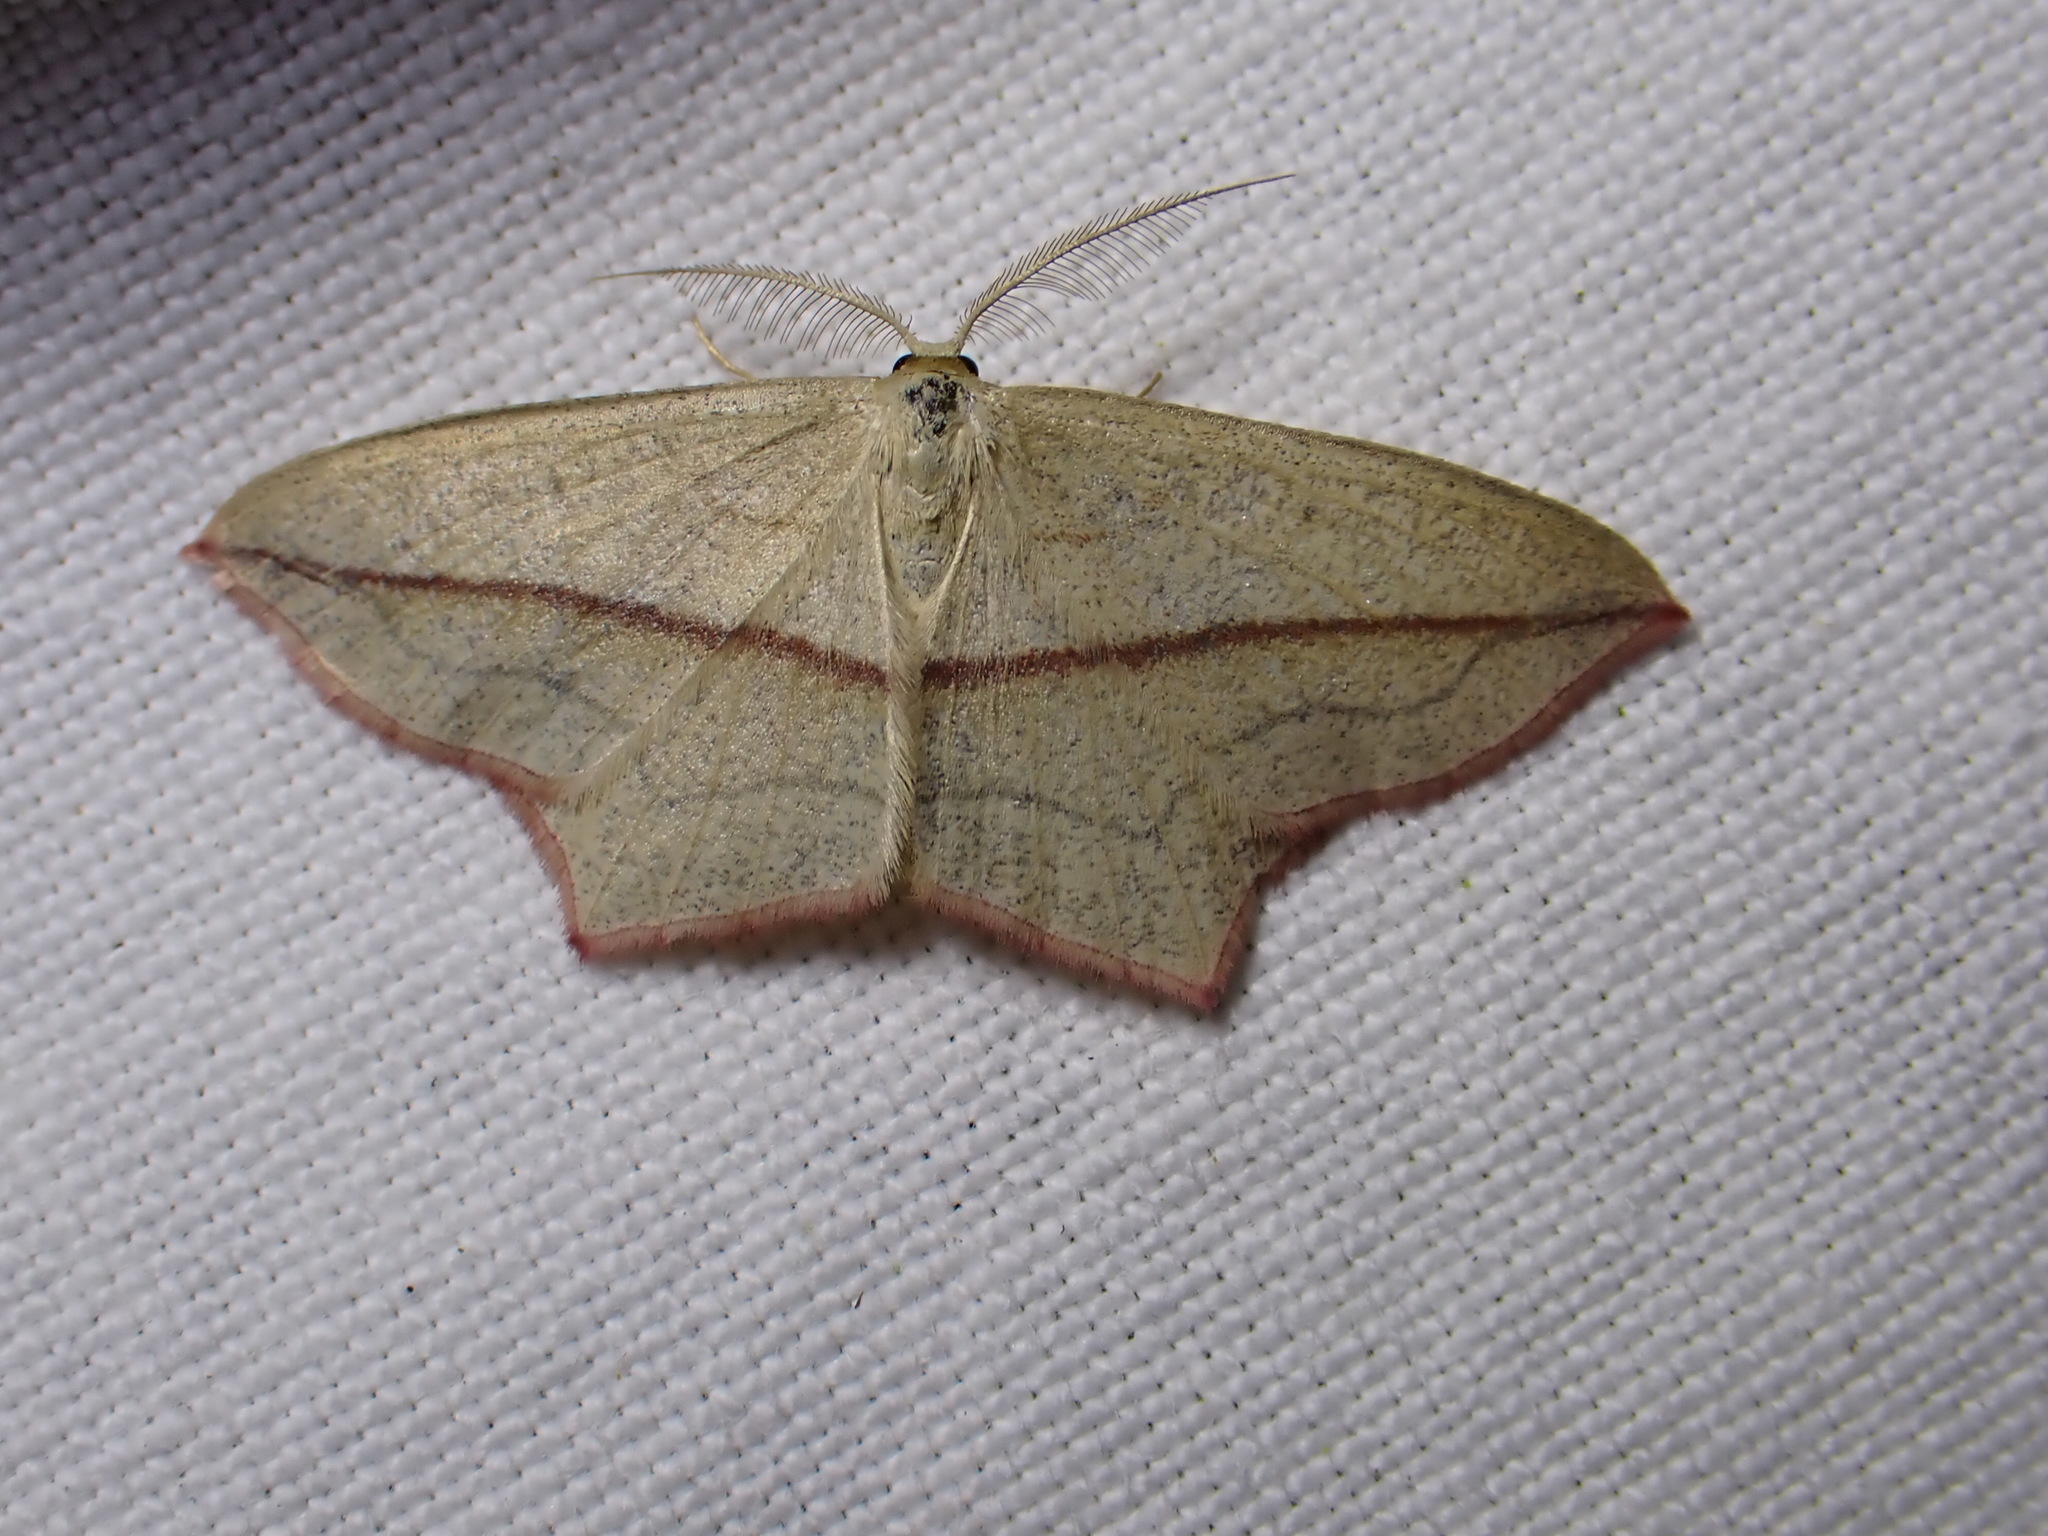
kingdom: Animalia
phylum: Arthropoda
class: Insecta
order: Lepidoptera
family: Geometridae
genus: Timandra
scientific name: Timandra comae
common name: Blood-vein
